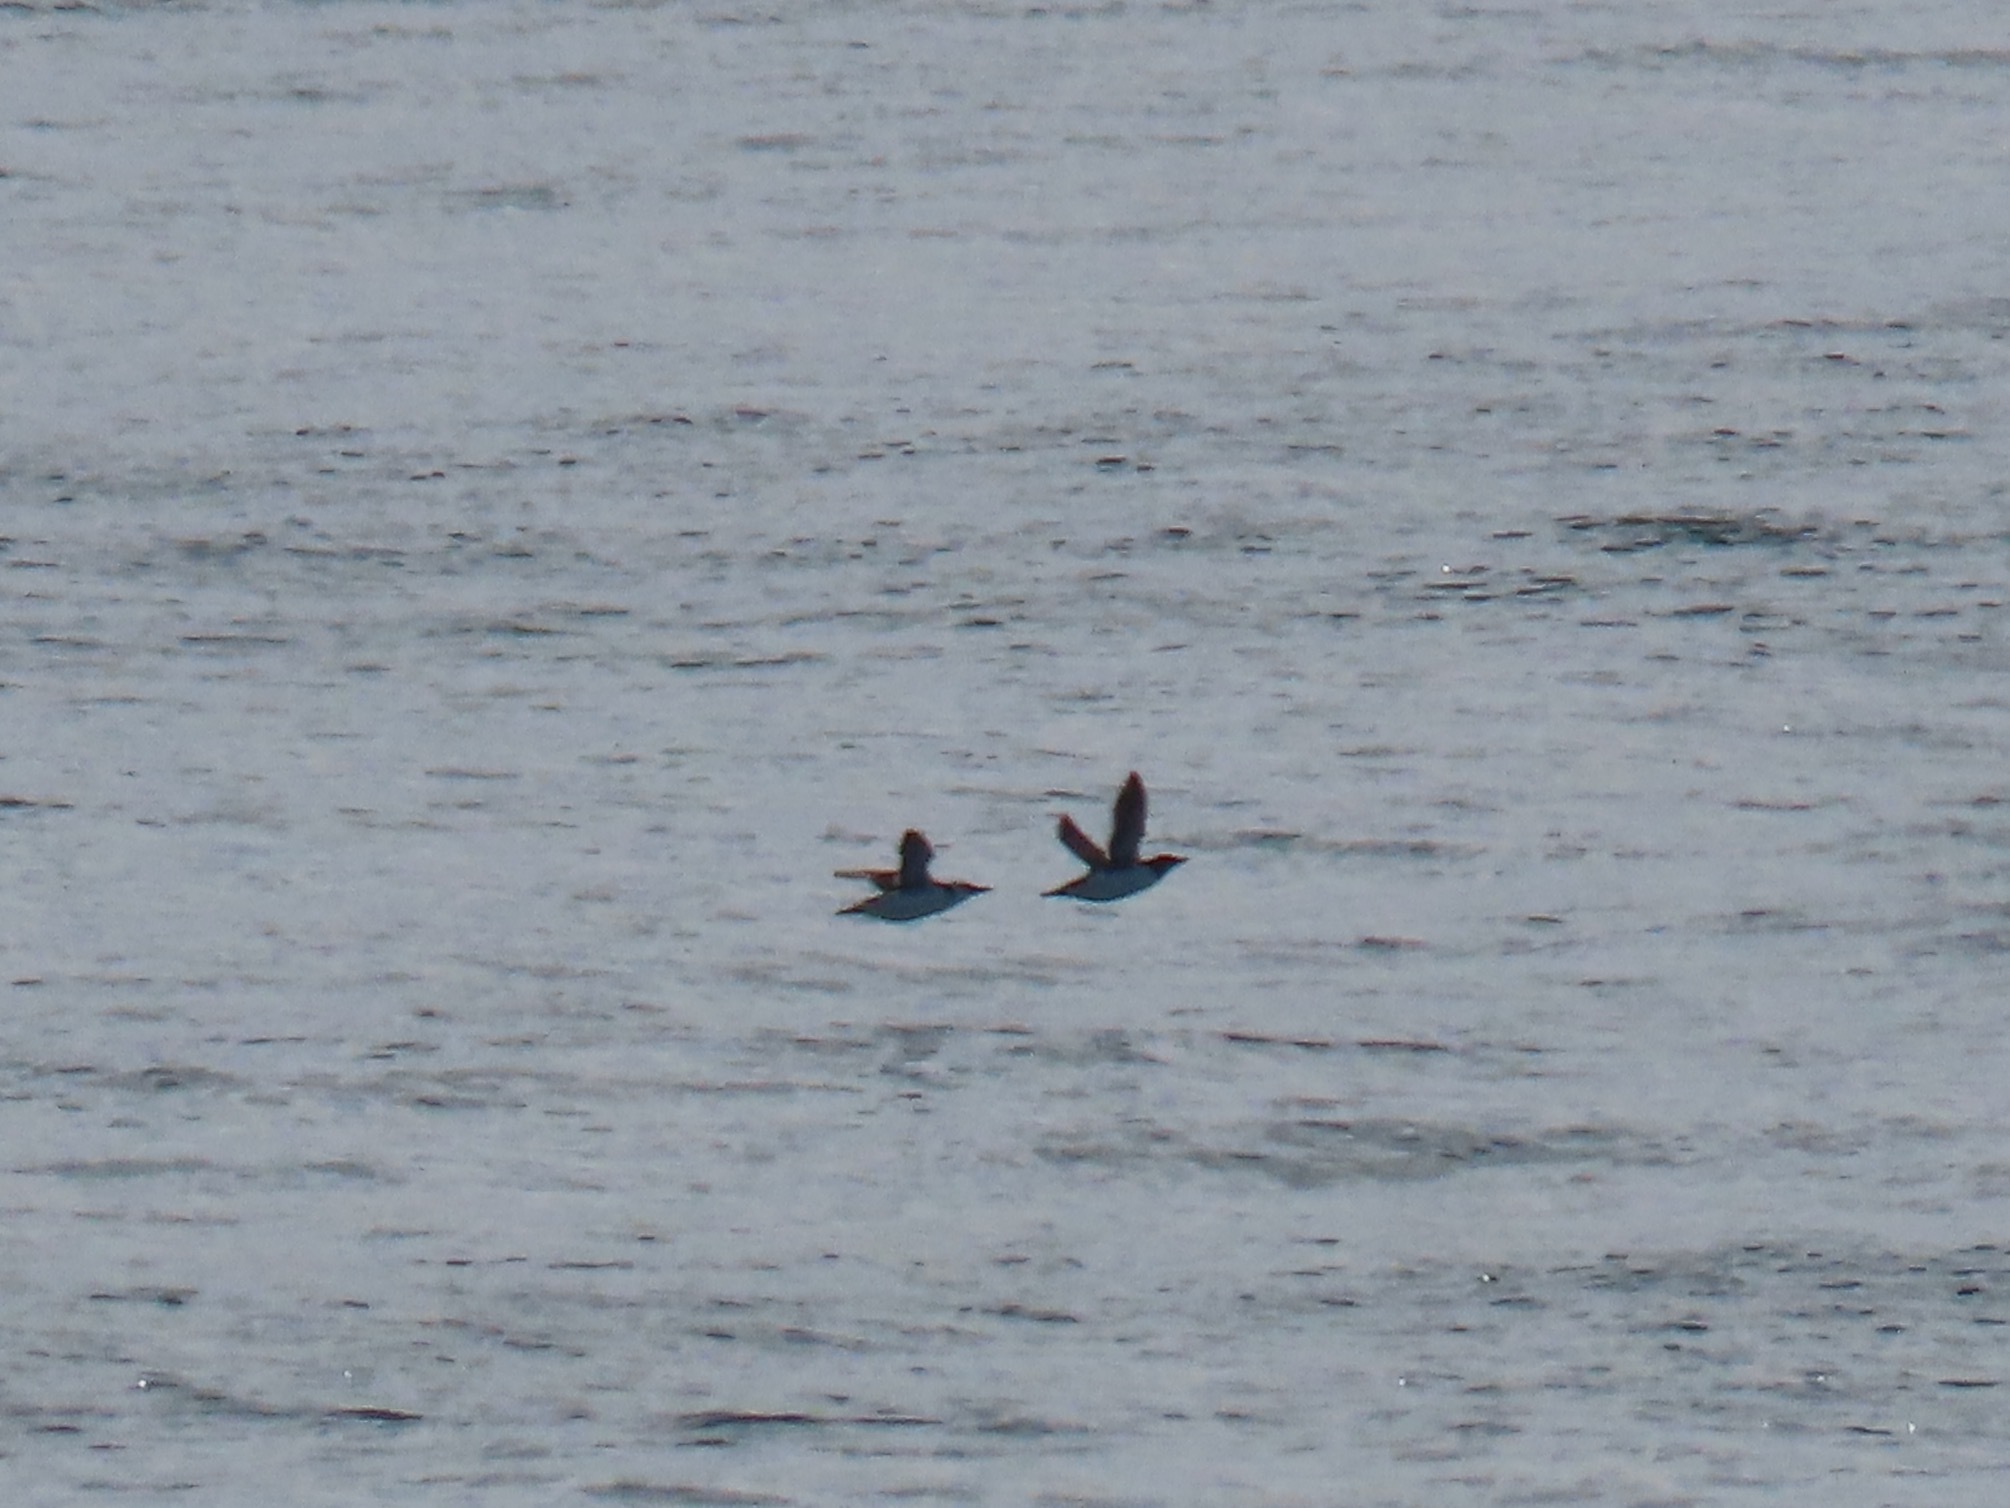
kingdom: Animalia
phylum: Chordata
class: Aves
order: Charadriiformes
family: Alcidae
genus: Uria
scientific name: Uria aalge
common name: Common murre
